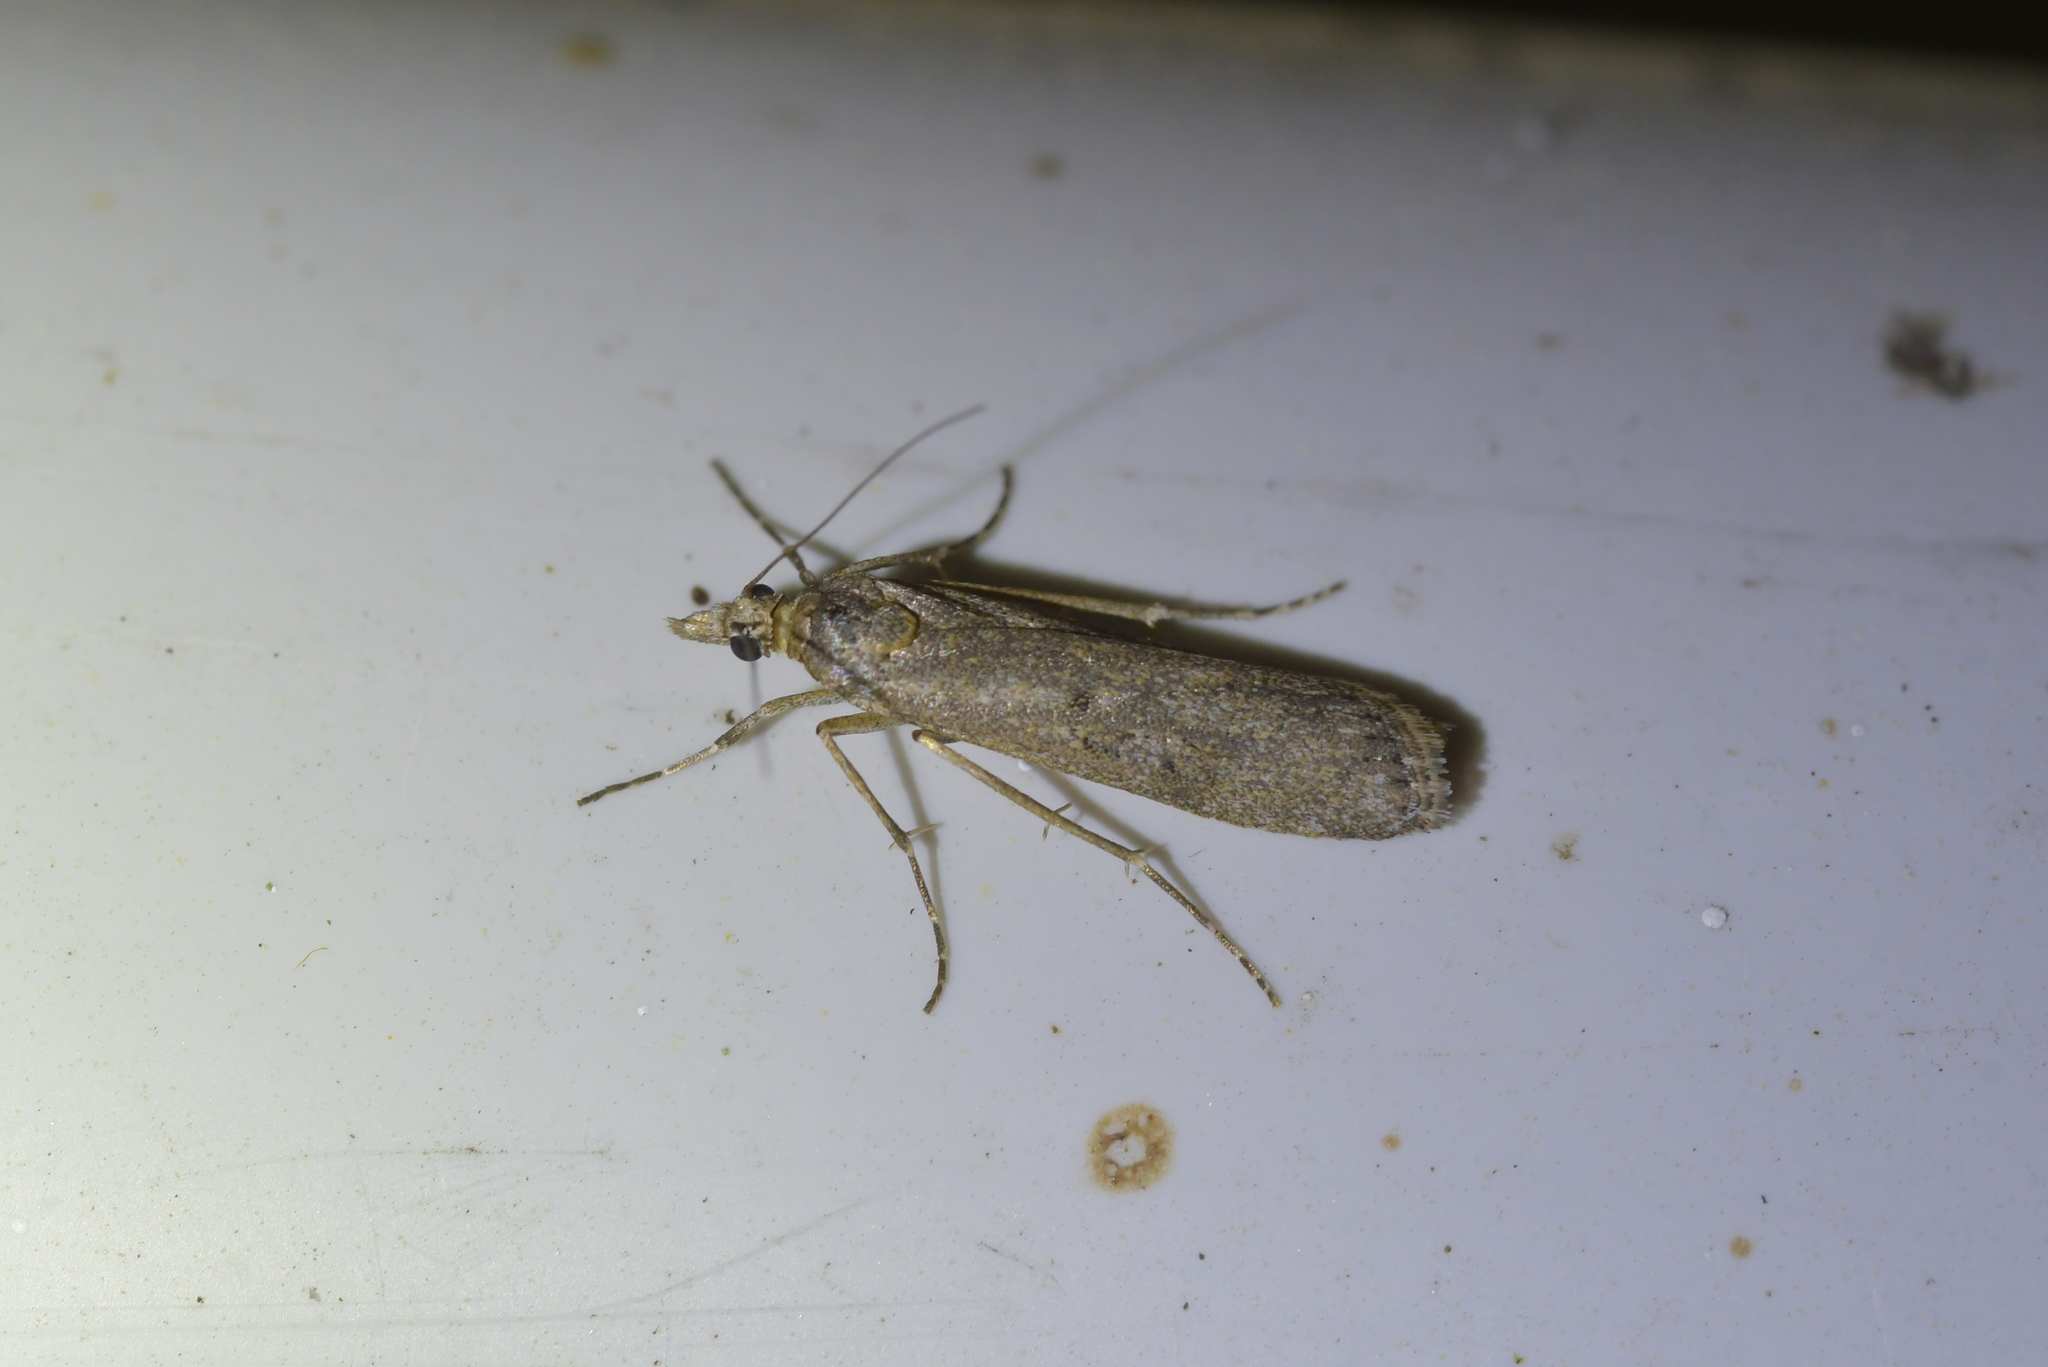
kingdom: Animalia
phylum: Arthropoda
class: Insecta
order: Lepidoptera
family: Crambidae
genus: Eudonia
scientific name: Eudonia leptalea
